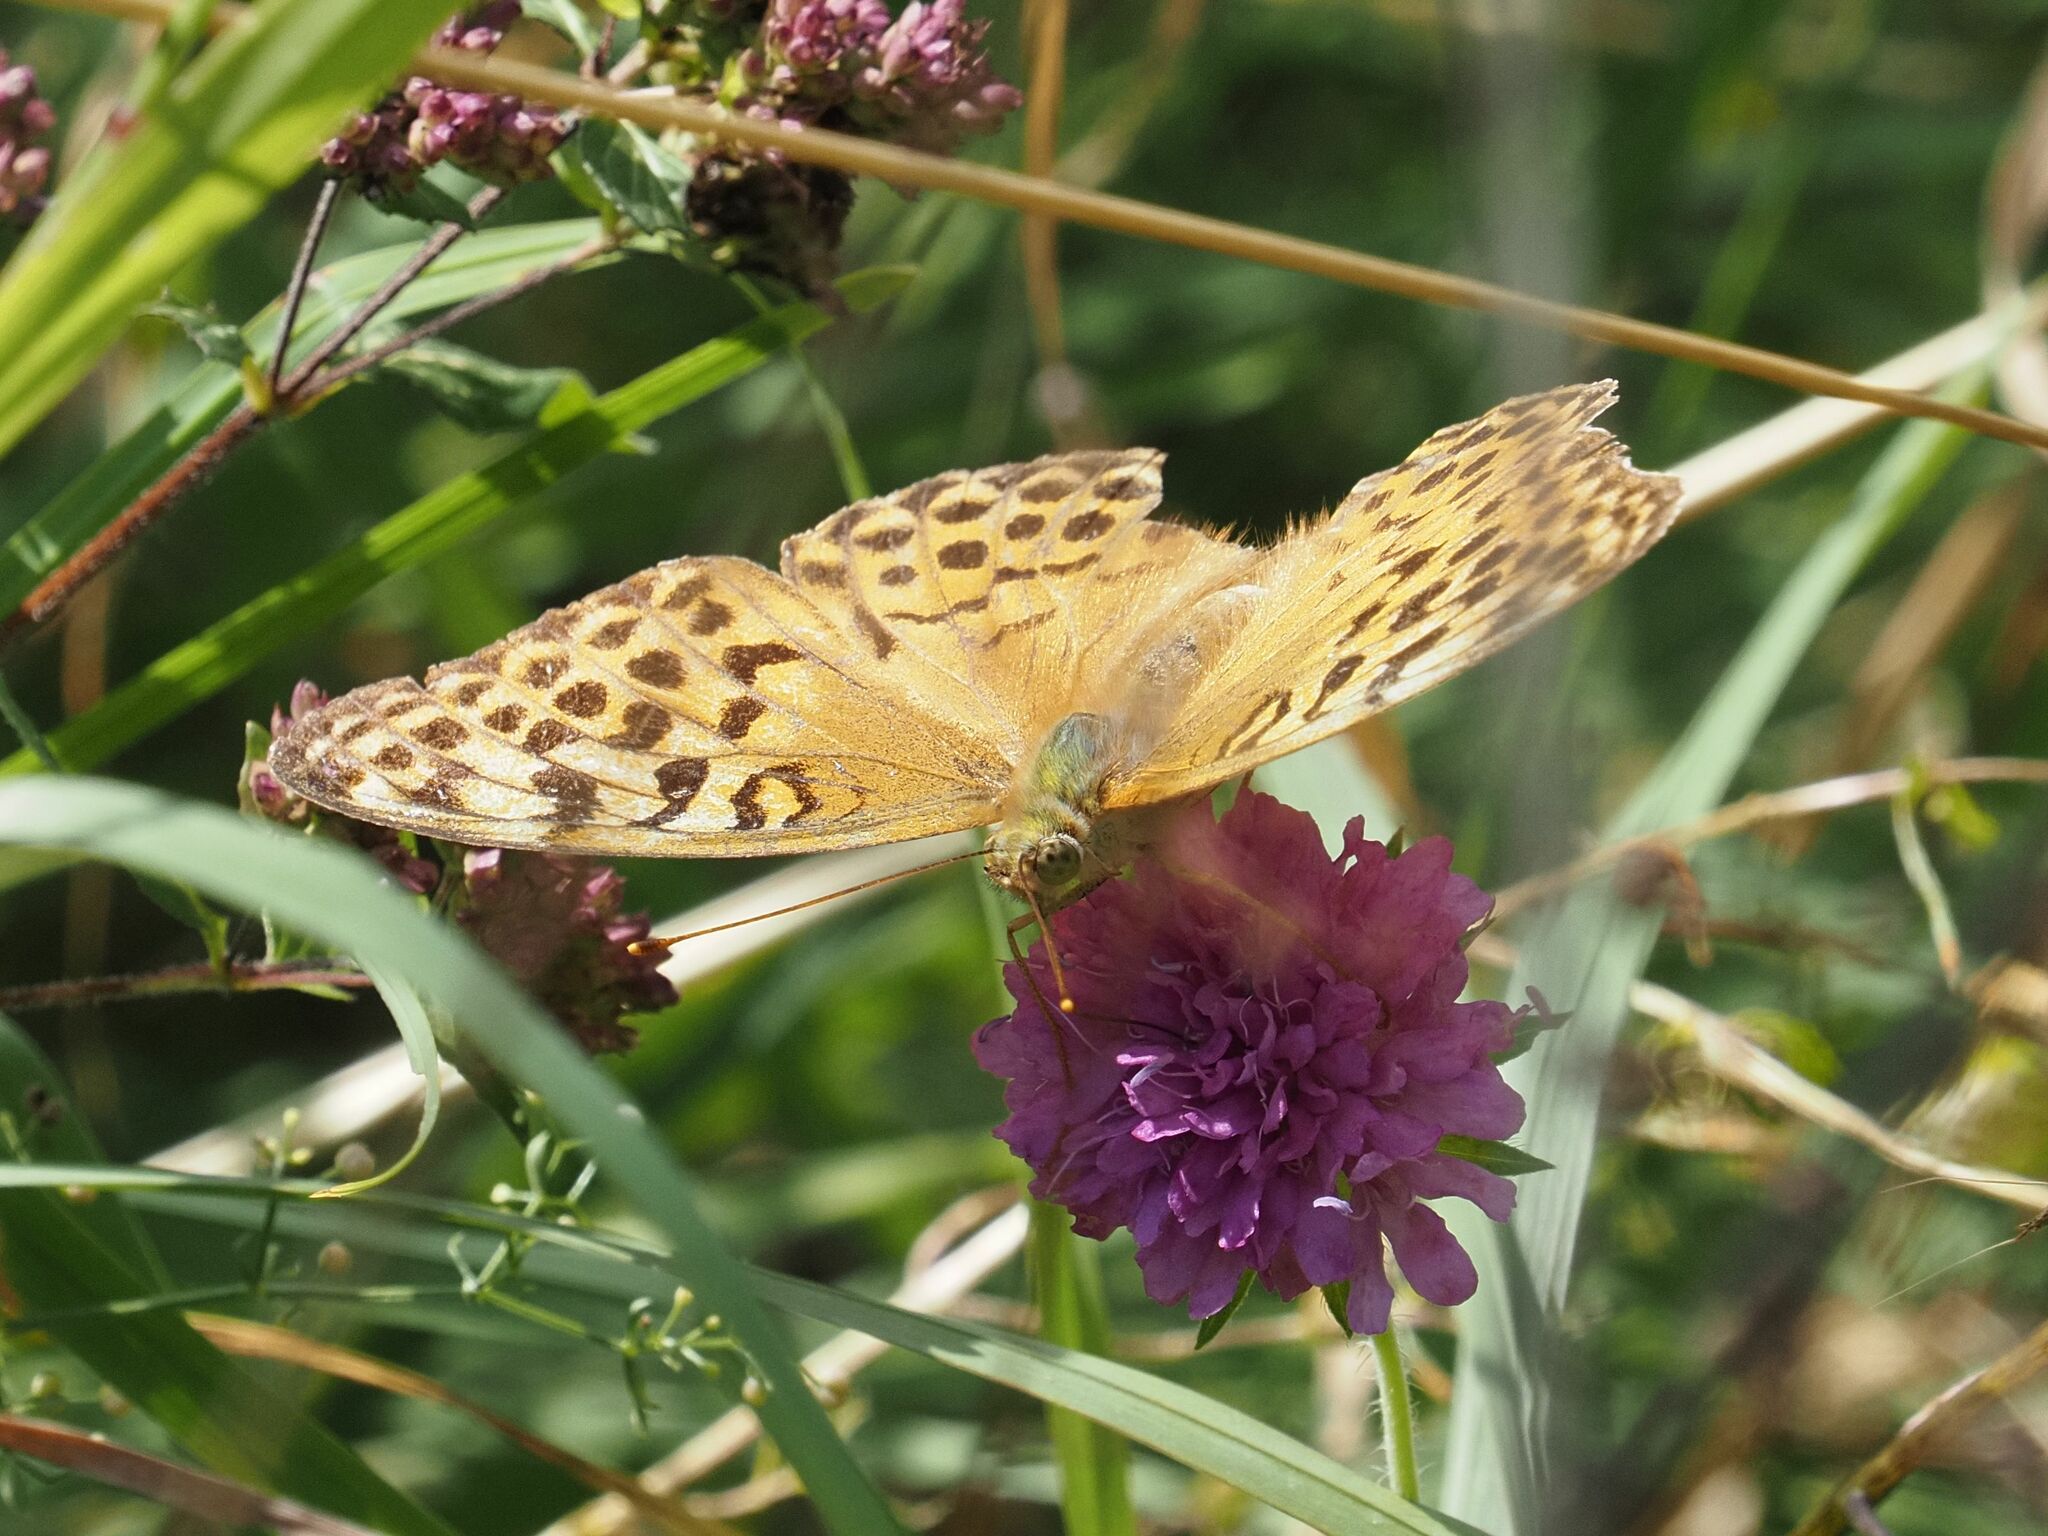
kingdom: Animalia
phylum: Arthropoda
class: Insecta
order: Lepidoptera
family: Nymphalidae
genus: Argynnis
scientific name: Argynnis paphia
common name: Silver-washed fritillary
